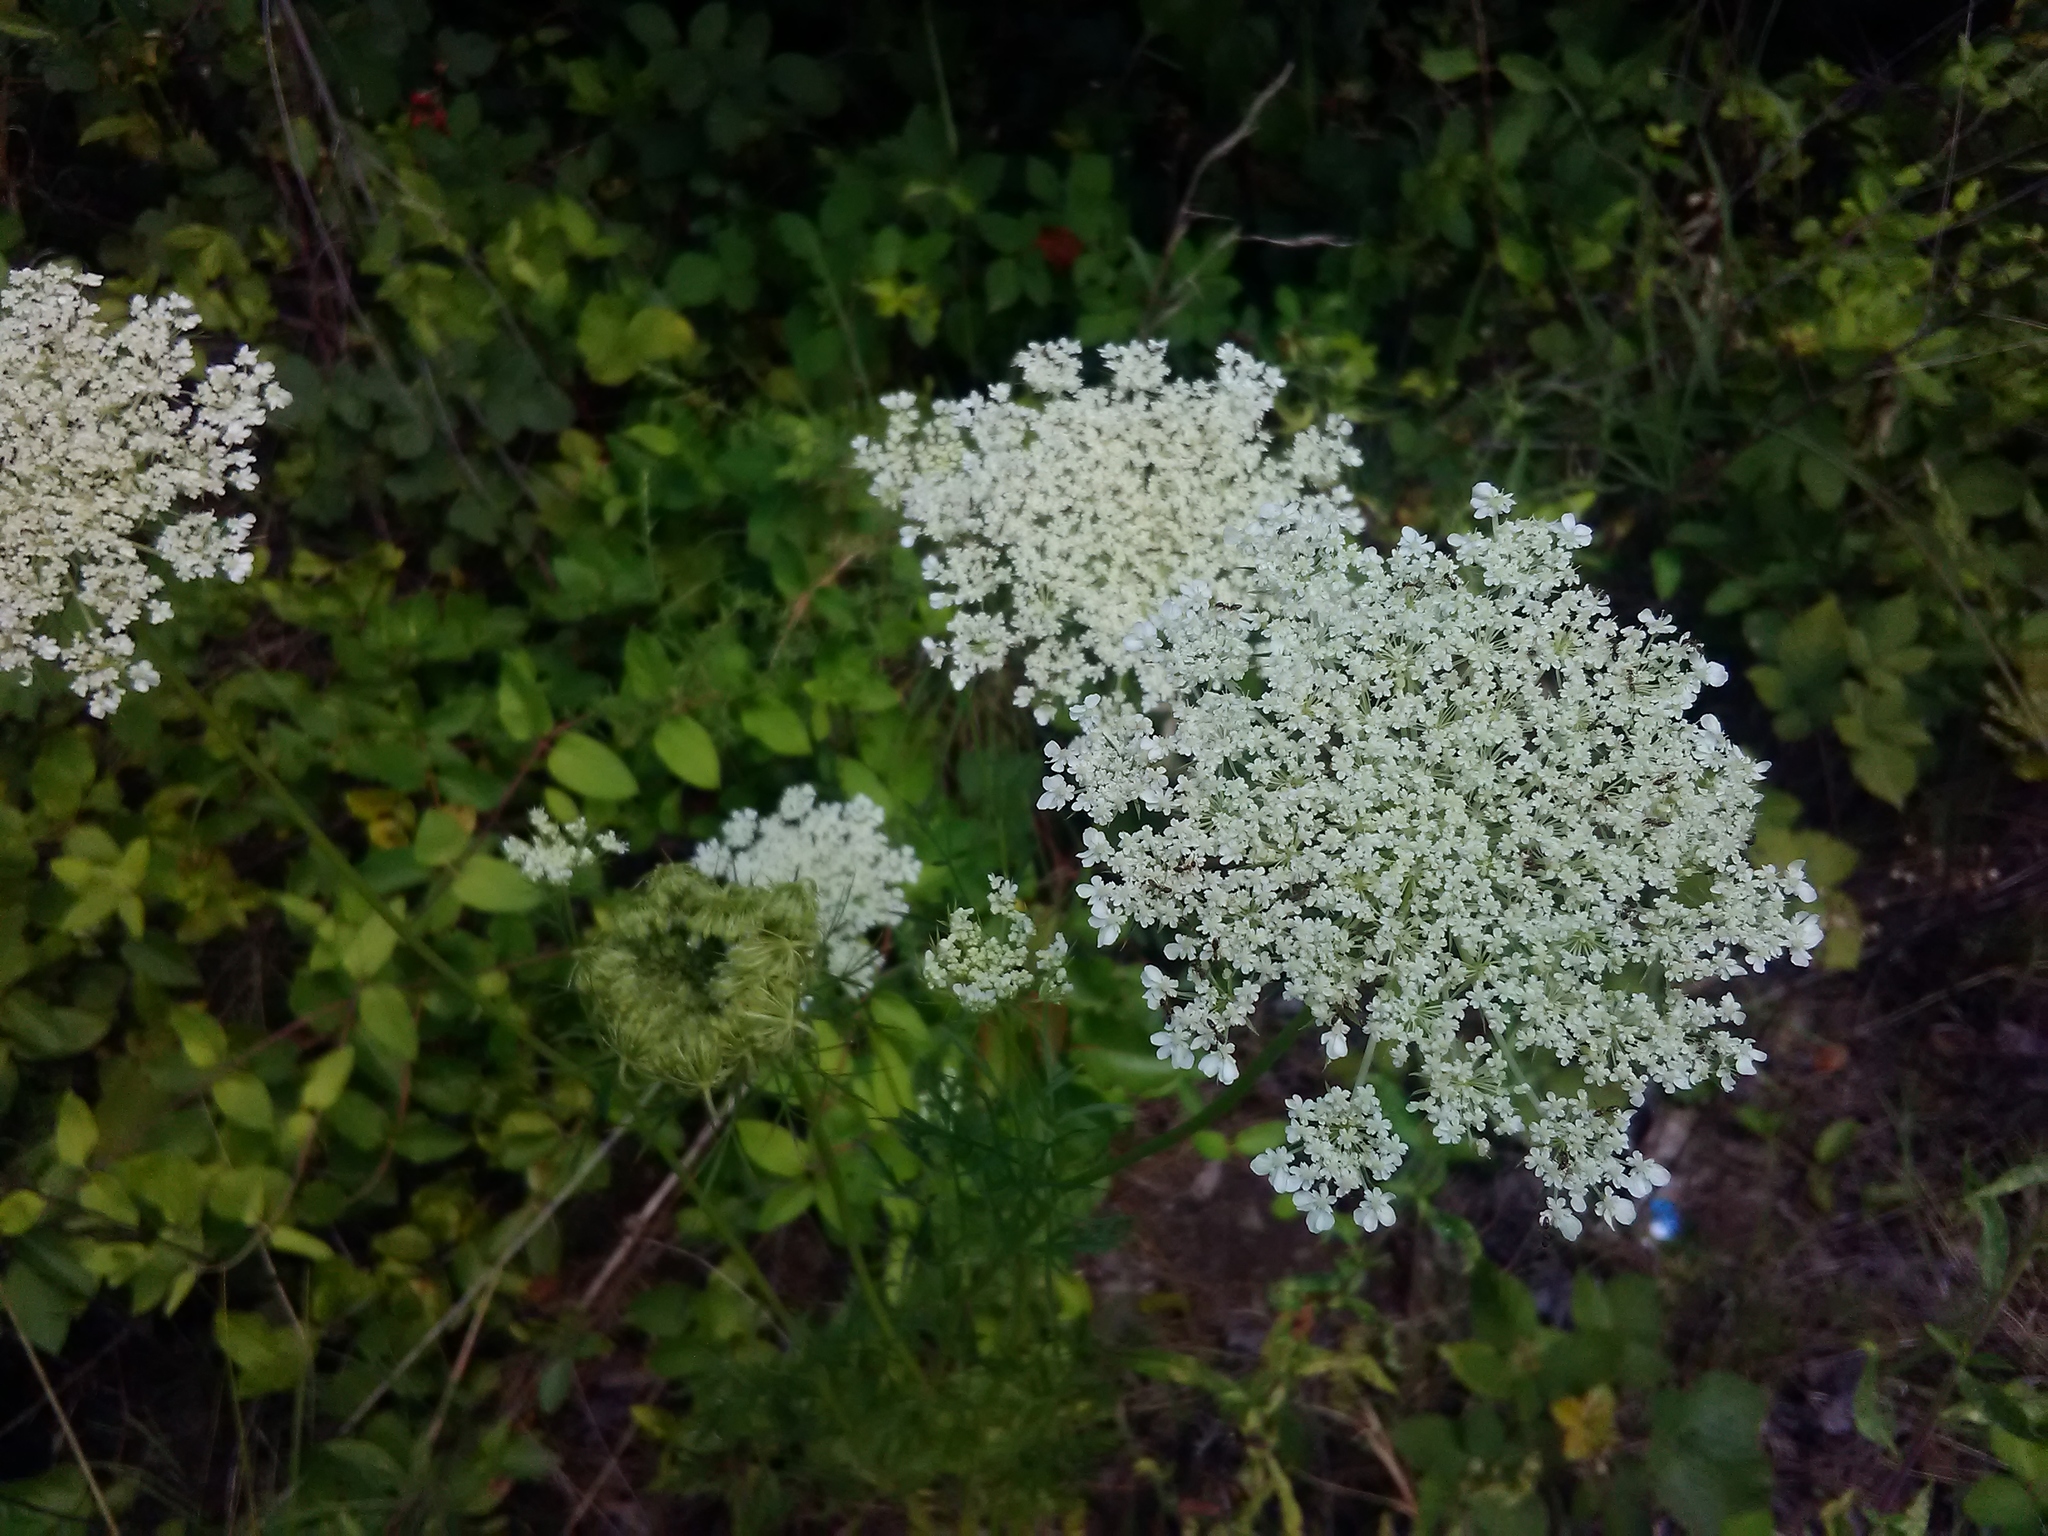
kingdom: Plantae
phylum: Tracheophyta
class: Magnoliopsida
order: Apiales
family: Apiaceae
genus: Daucus
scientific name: Daucus carota
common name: Wild carrot
